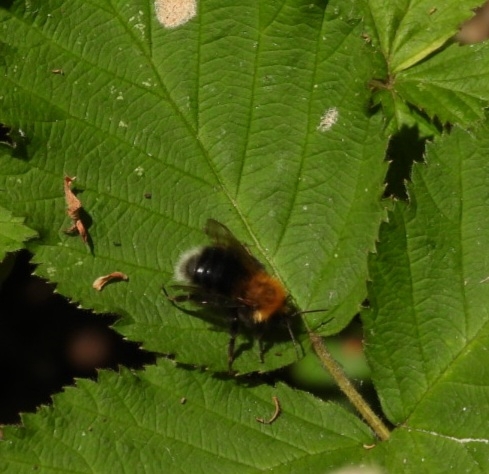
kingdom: Animalia
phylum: Arthropoda
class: Insecta
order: Hymenoptera
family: Apidae
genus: Bombus
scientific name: Bombus hypnorum
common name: New garden bumblebee
